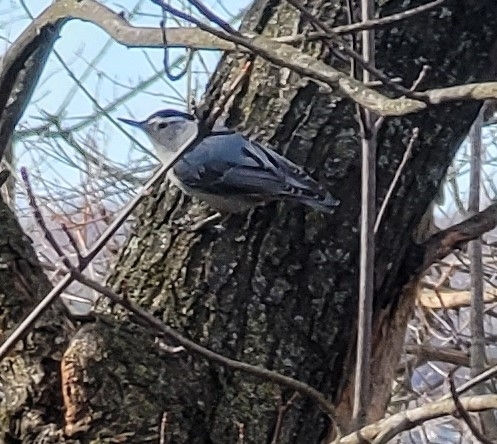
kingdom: Animalia
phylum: Chordata
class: Aves
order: Passeriformes
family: Sittidae
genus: Sitta
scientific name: Sitta carolinensis
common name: White-breasted nuthatch
